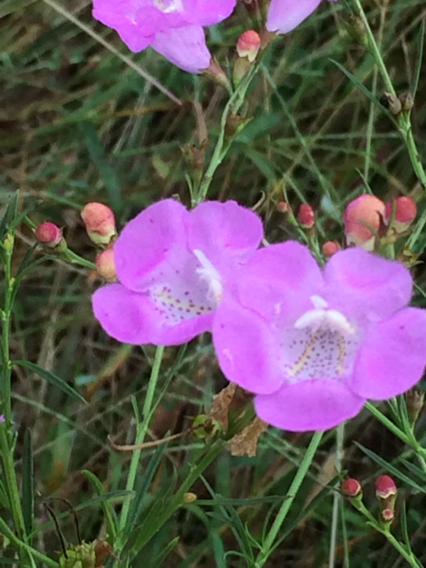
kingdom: Plantae
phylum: Tracheophyta
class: Magnoliopsida
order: Lamiales
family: Orobanchaceae
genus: Agalinis
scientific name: Agalinis fasciculata
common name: Beach false foxglove
